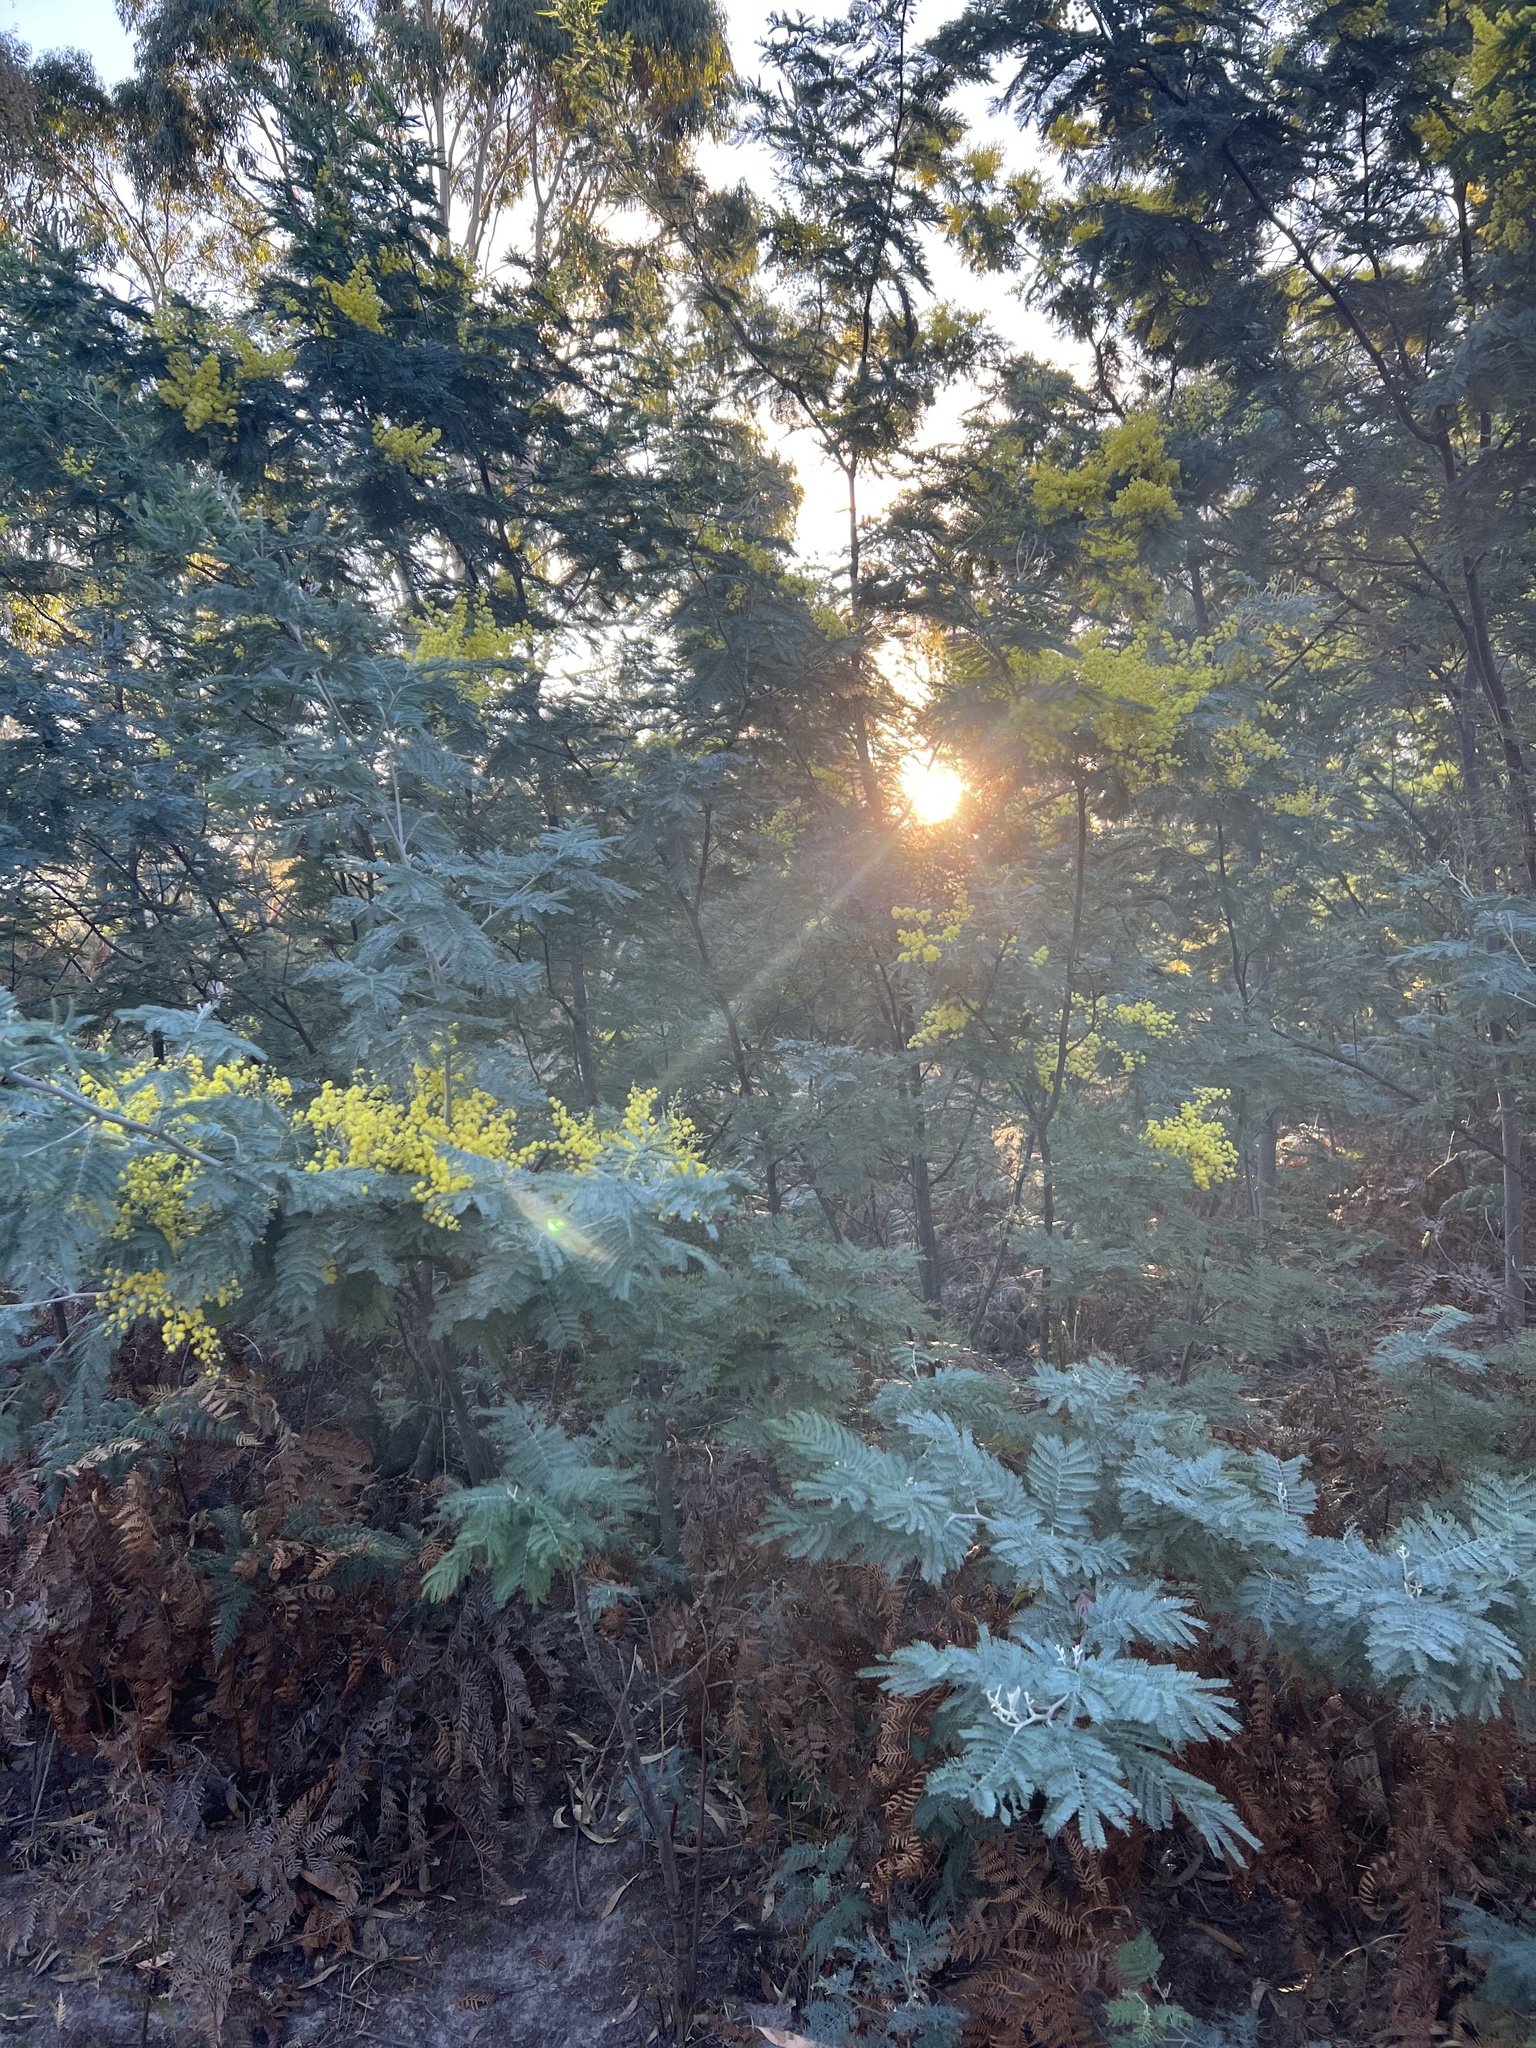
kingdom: Plantae
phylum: Tracheophyta
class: Magnoliopsida
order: Fabales
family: Fabaceae
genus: Acacia
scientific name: Acacia dealbata
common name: Silver wattle
